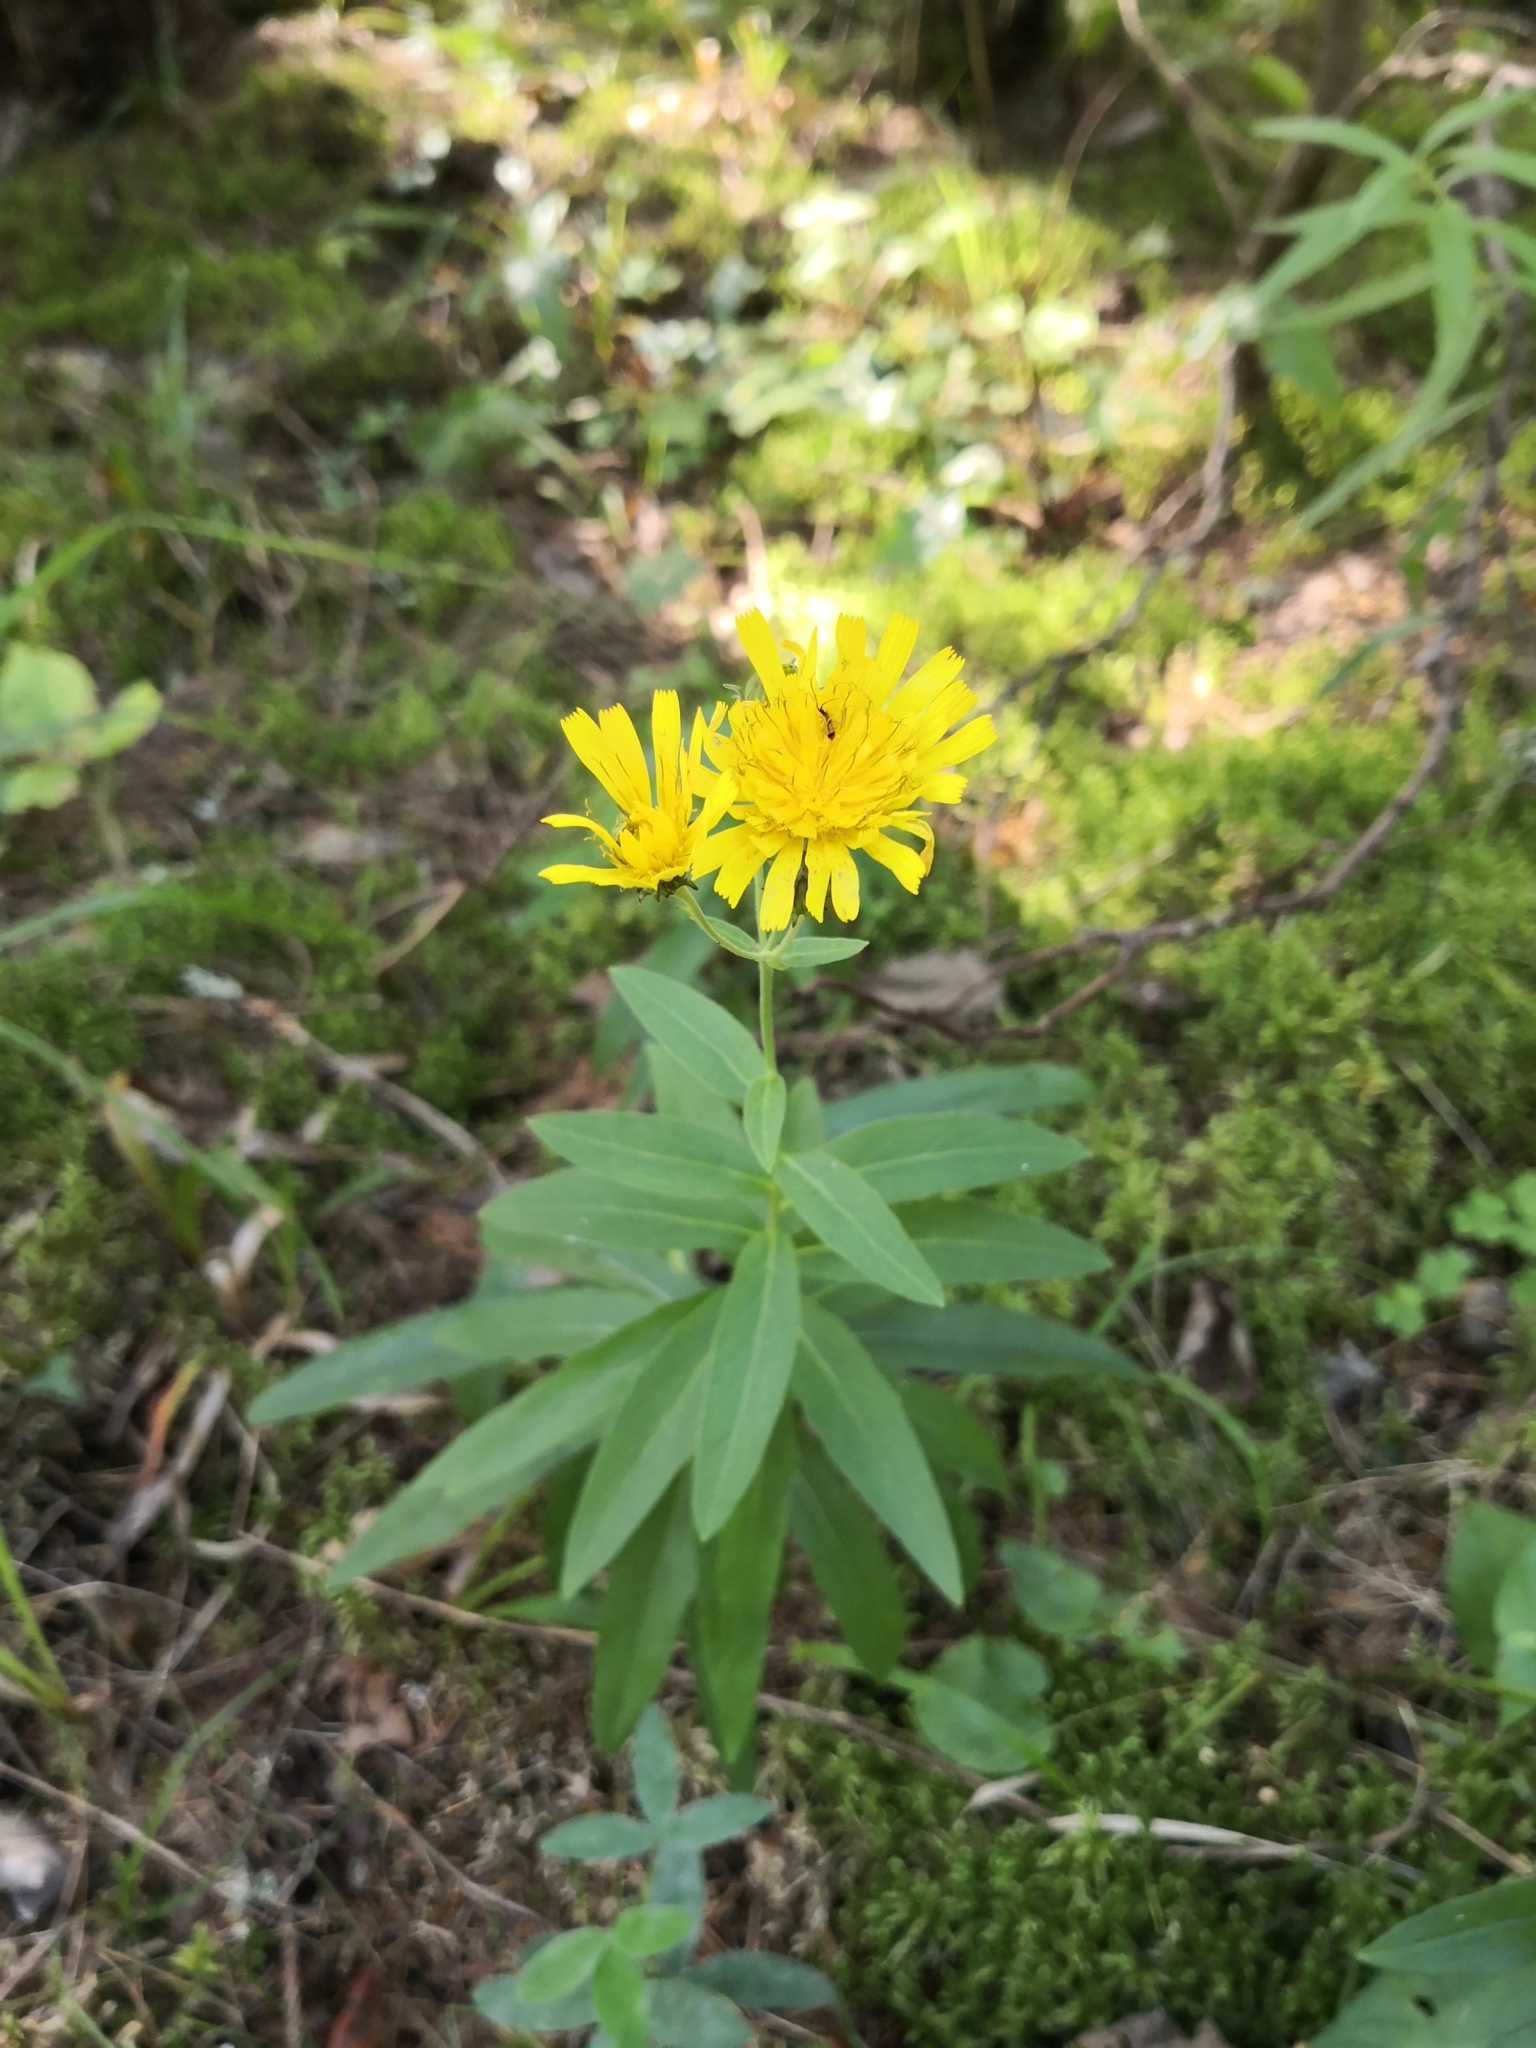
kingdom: Plantae
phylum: Tracheophyta
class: Magnoliopsida
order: Asterales
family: Asteraceae
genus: Hieracium
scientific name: Hieracium umbellatum
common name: Northern hawkweed
